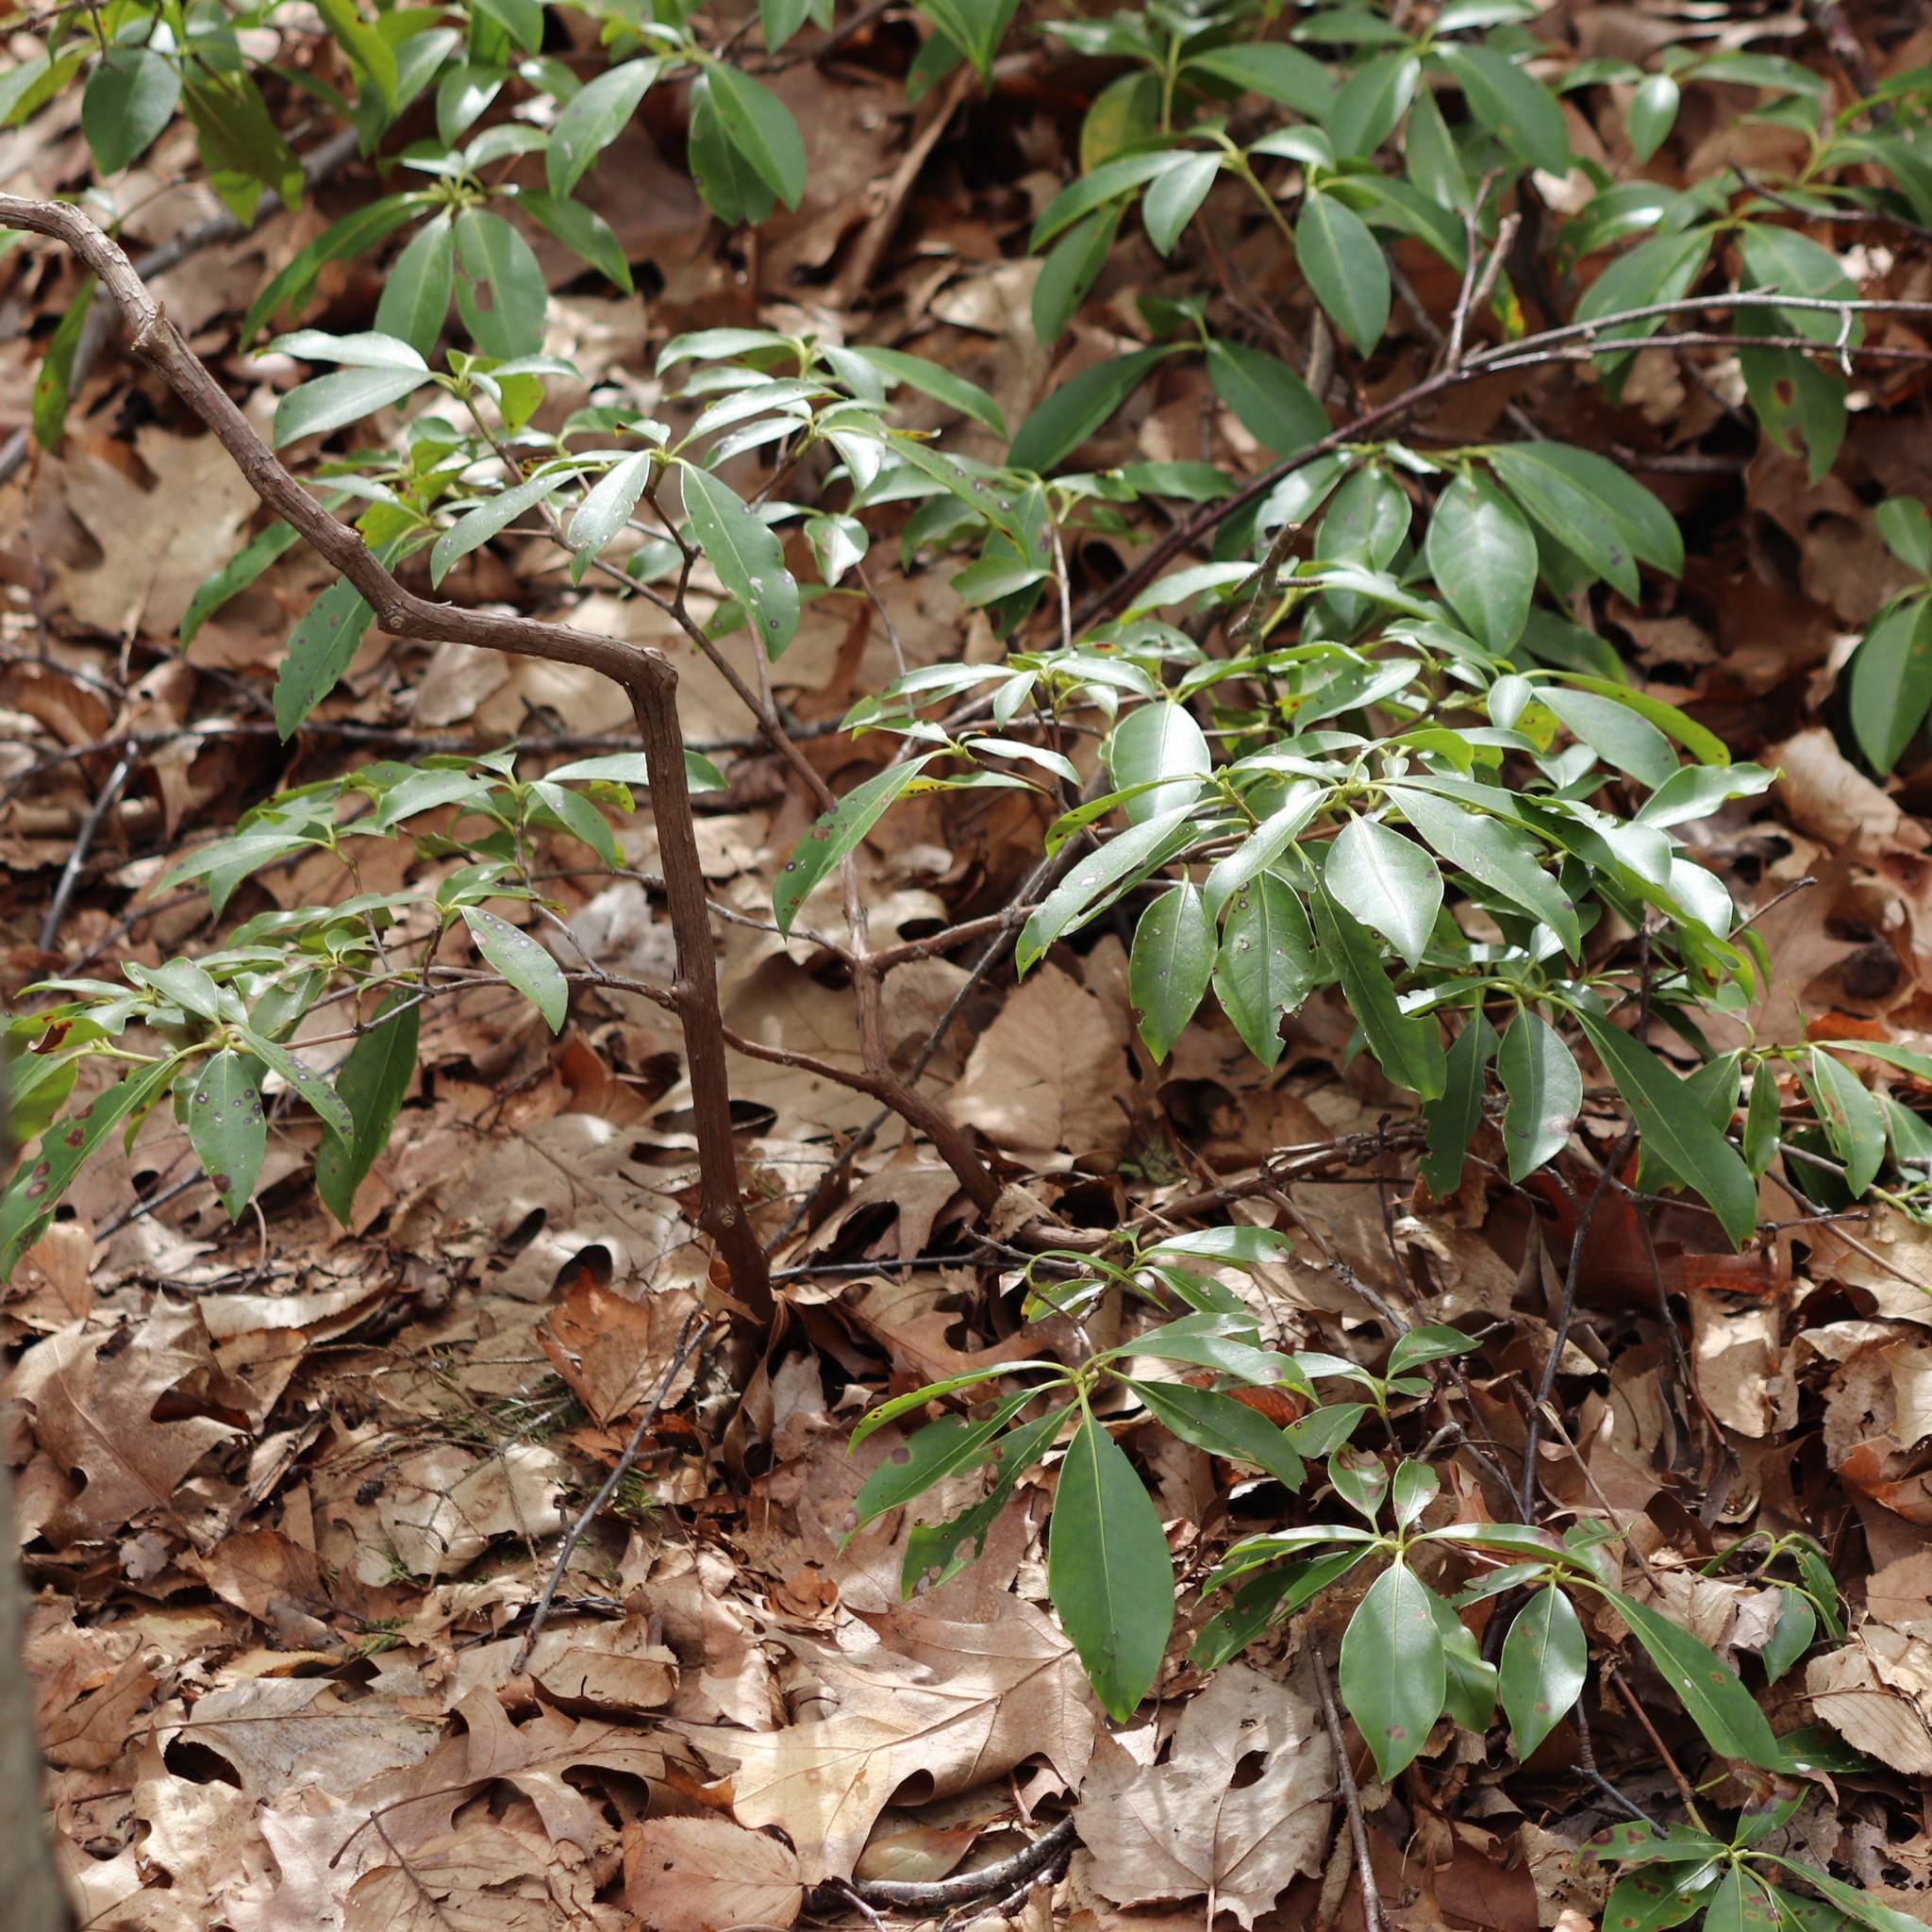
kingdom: Plantae
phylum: Tracheophyta
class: Magnoliopsida
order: Ericales
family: Ericaceae
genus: Kalmia
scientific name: Kalmia latifolia
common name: Mountain-laurel
